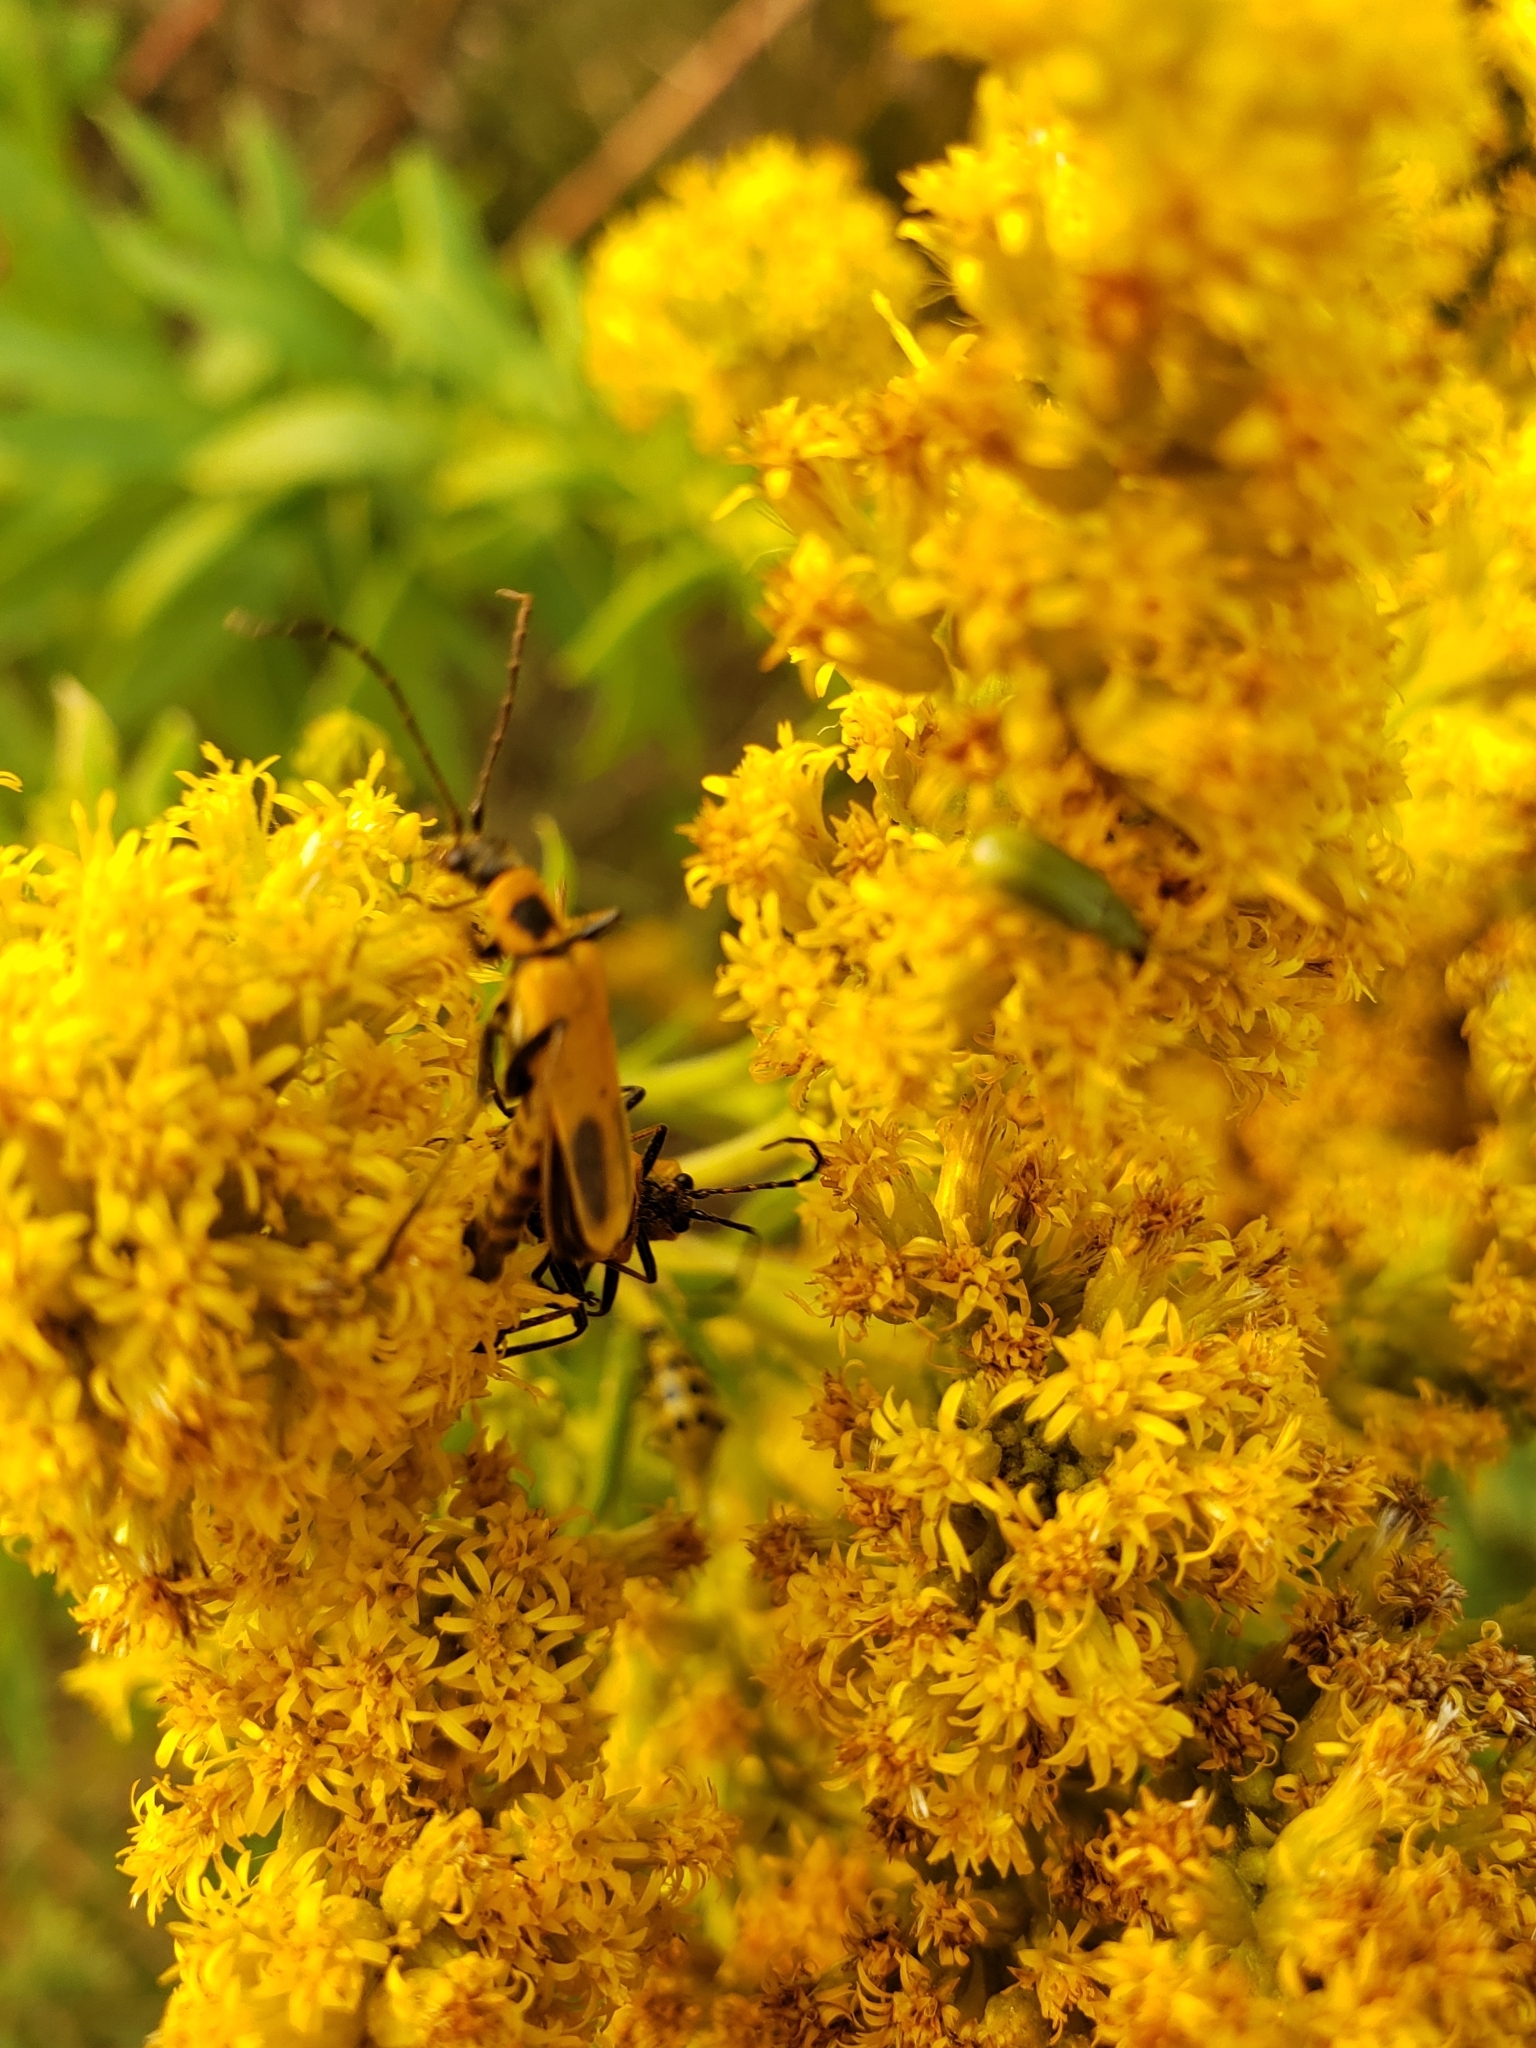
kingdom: Animalia
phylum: Arthropoda
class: Insecta
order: Coleoptera
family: Cantharidae
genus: Chauliognathus
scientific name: Chauliognathus pensylvanicus
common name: Goldenrod soldier beetle
